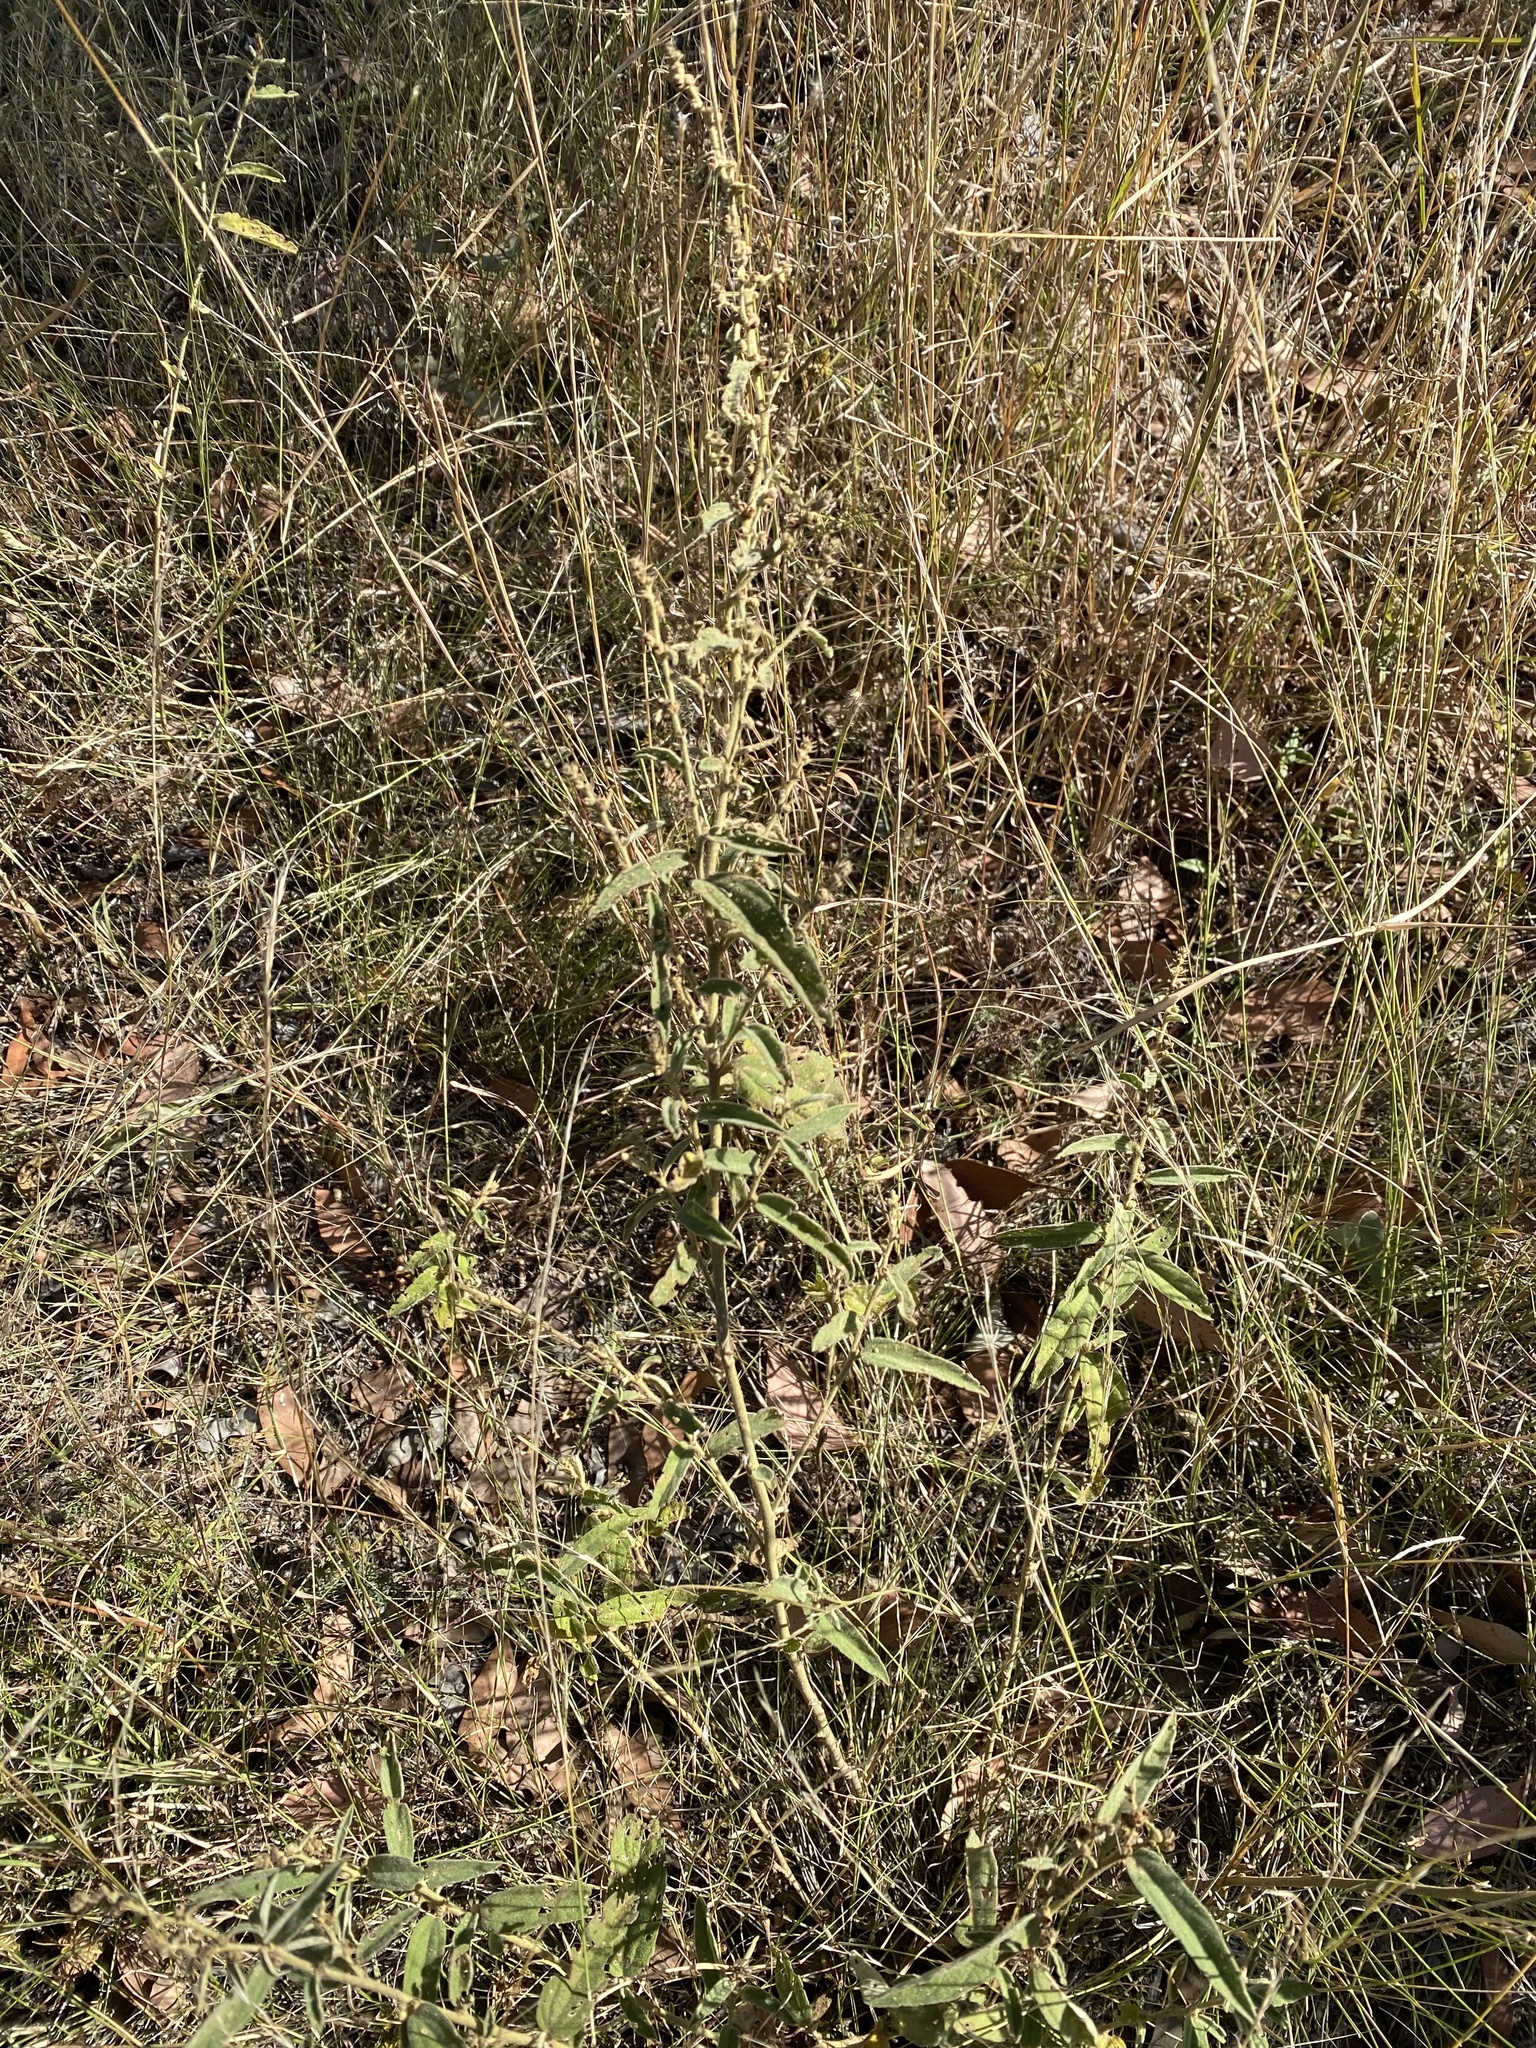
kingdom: Plantae
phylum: Tracheophyta
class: Magnoliopsida
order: Malvales
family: Malvaceae
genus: Sida
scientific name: Sida hackettiana
